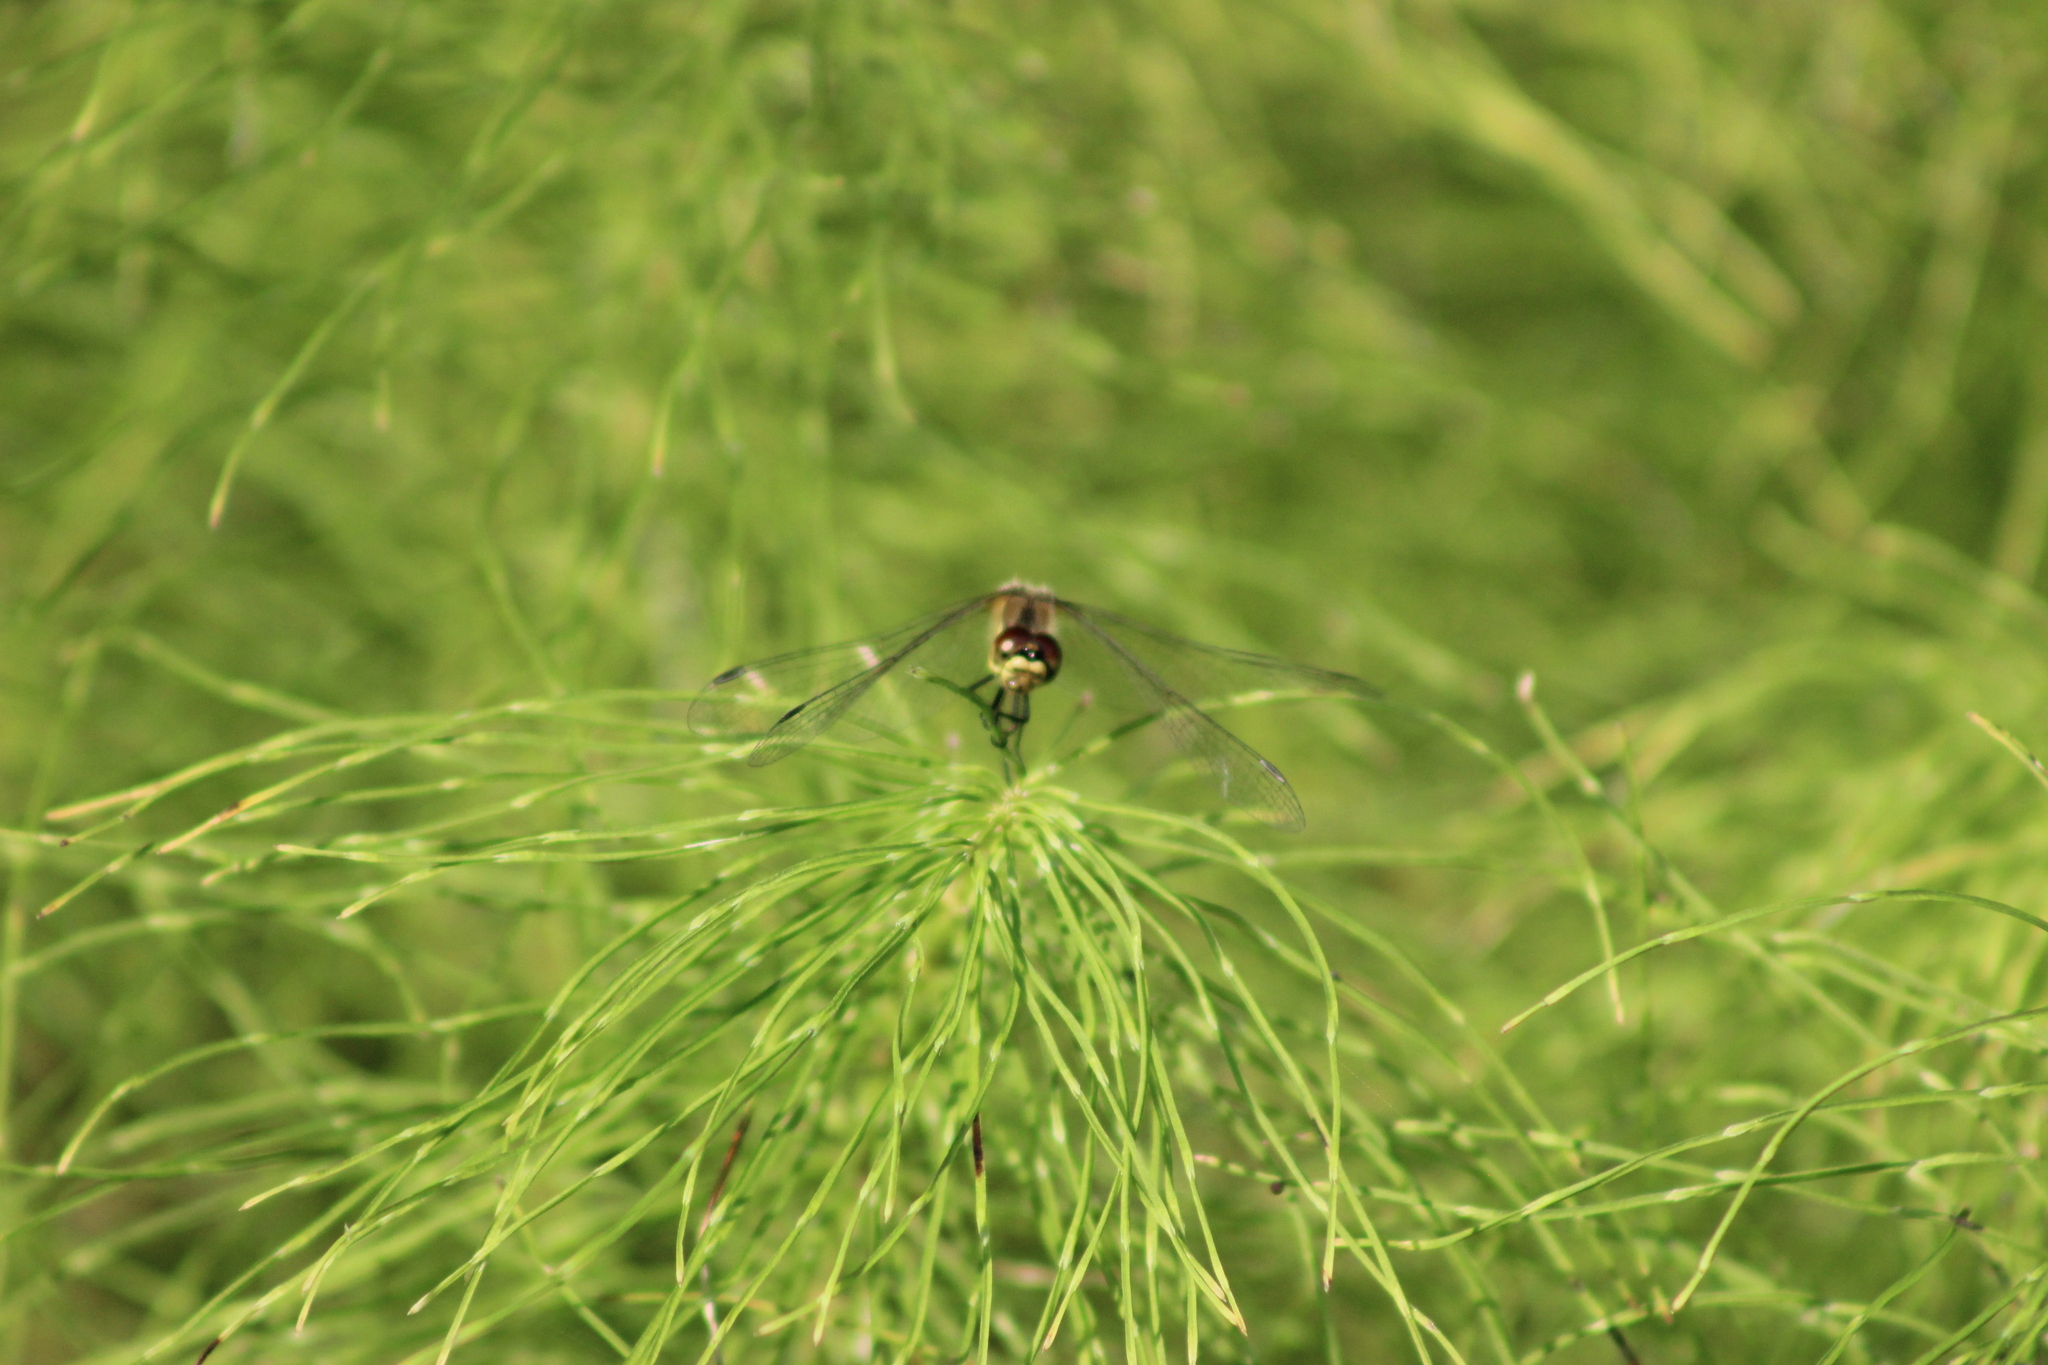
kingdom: Animalia
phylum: Arthropoda
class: Insecta
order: Odonata
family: Libellulidae
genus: Sympetrum
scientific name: Sympetrum danae
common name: Black darter
